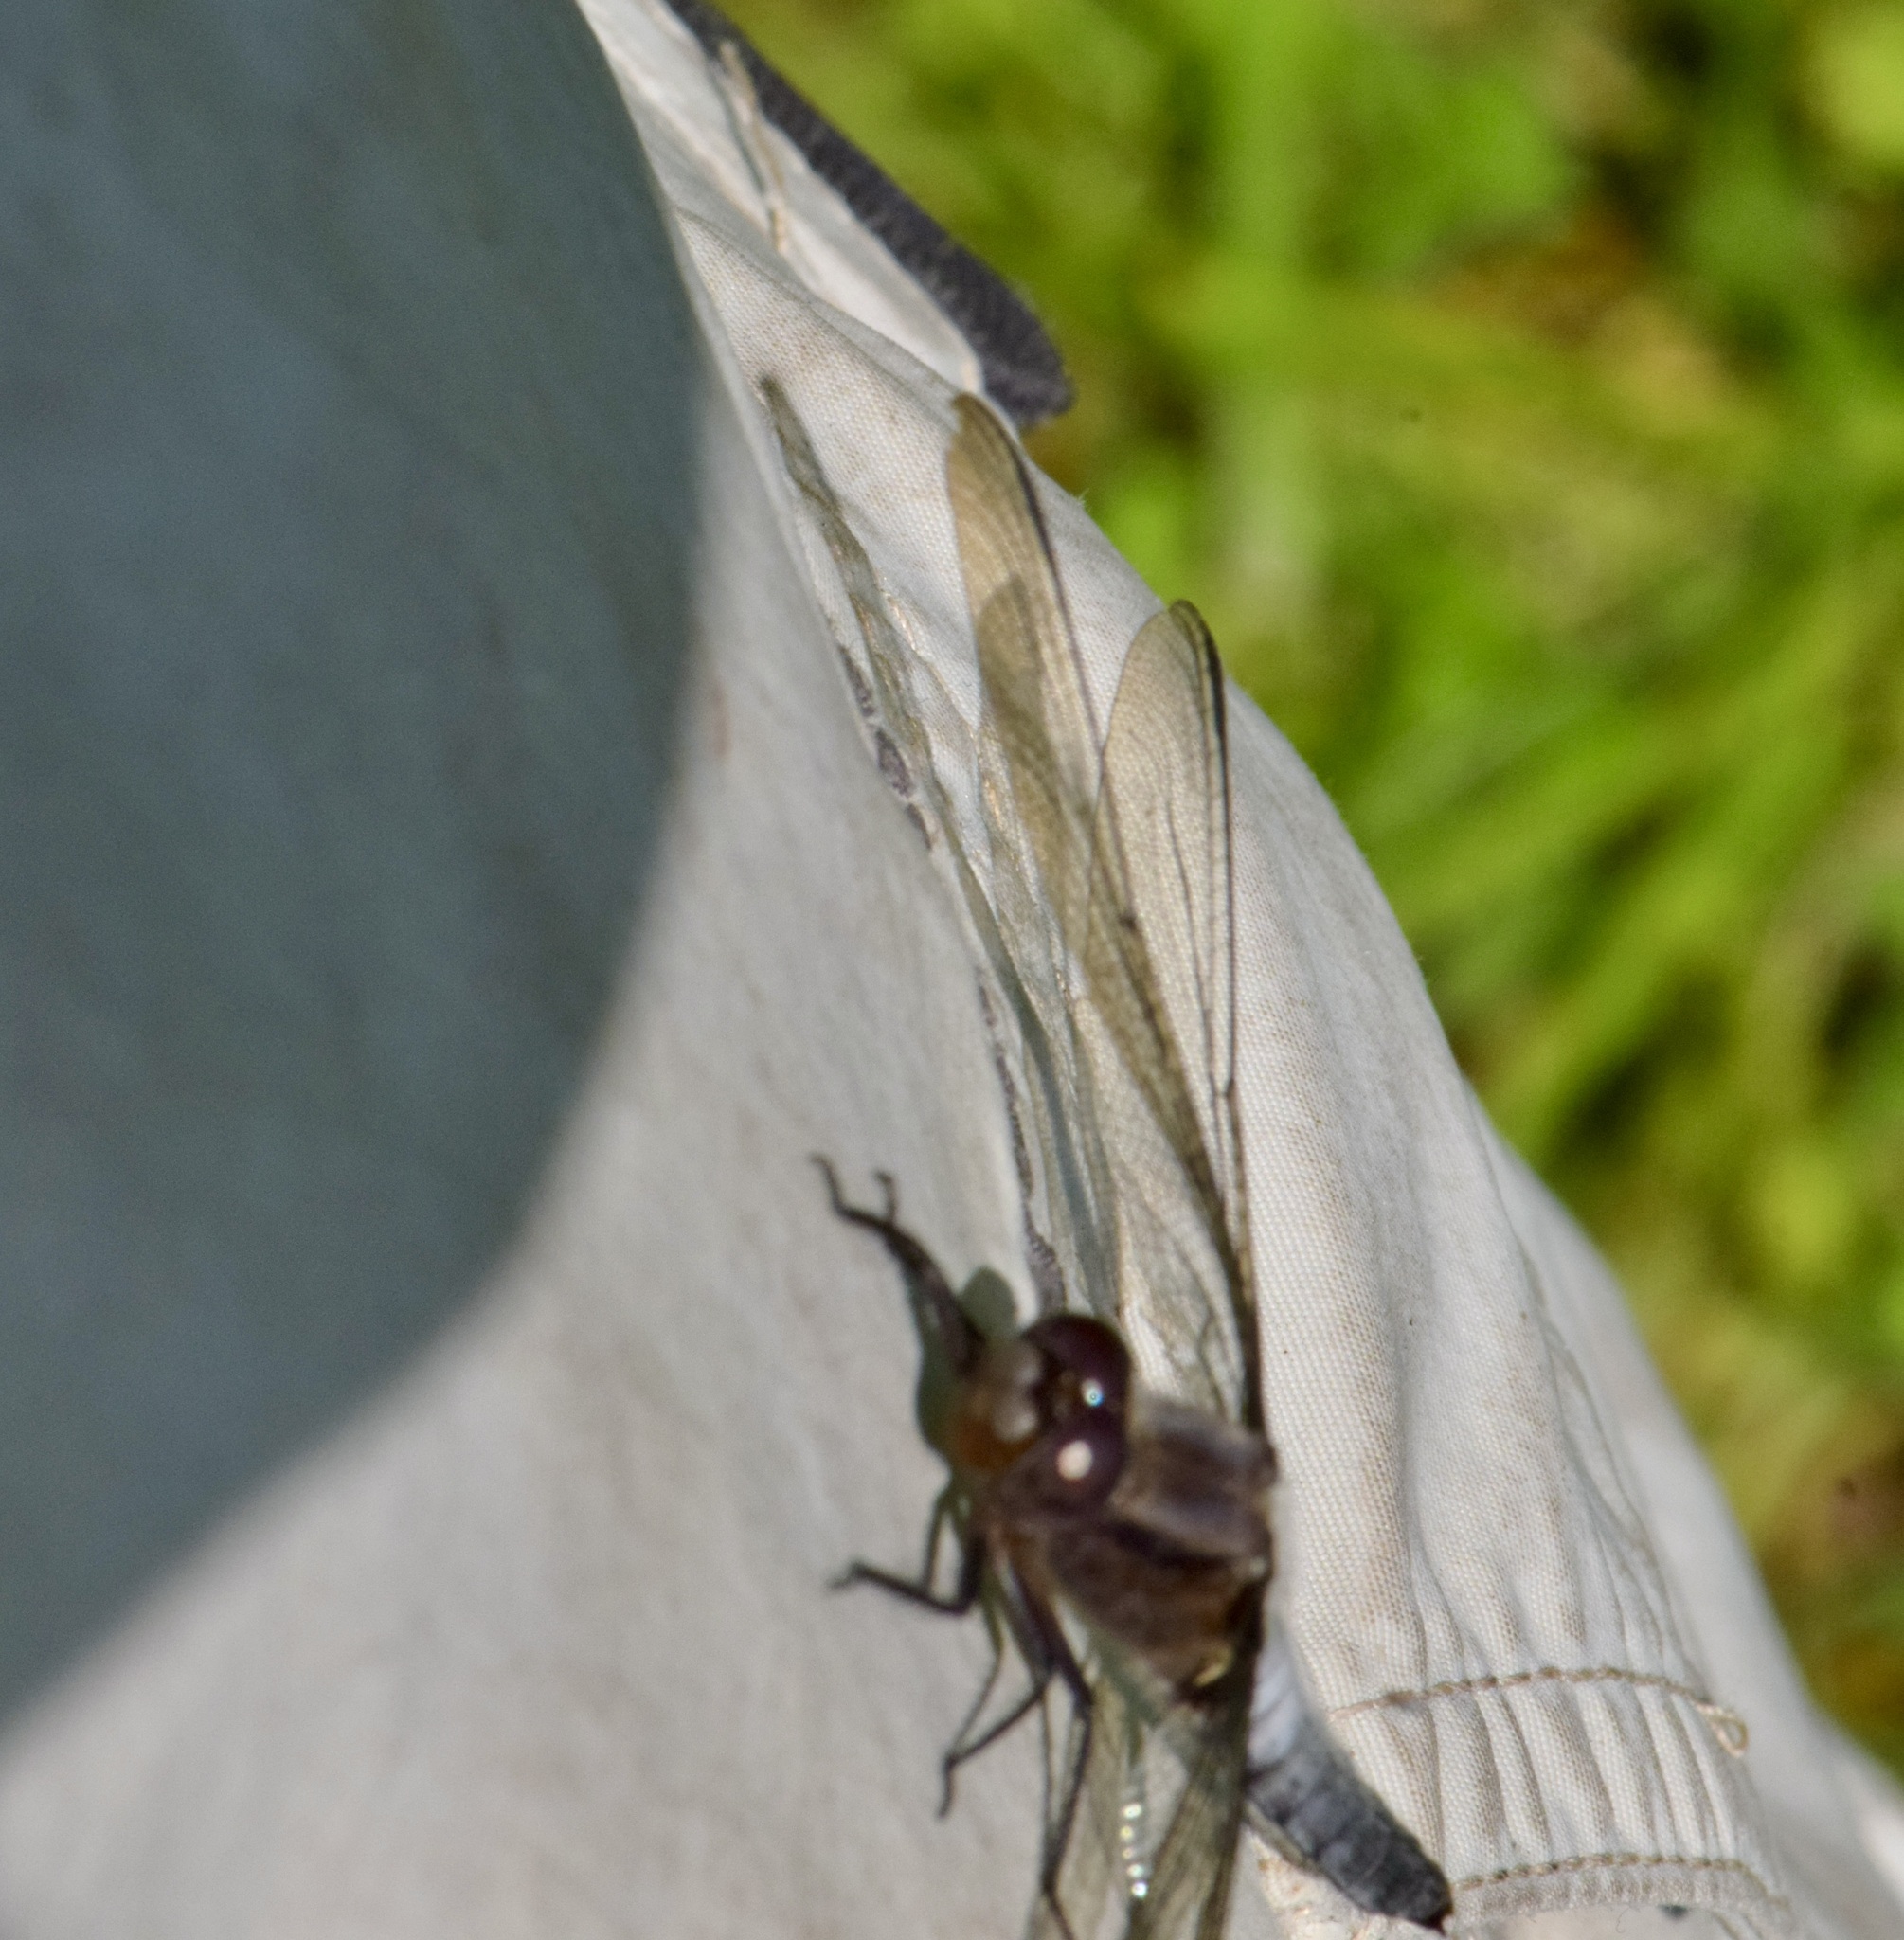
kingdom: Animalia
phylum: Arthropoda
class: Insecta
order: Odonata
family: Libellulidae
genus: Ladona
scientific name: Ladona julia
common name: Chalk-fronted corporal
